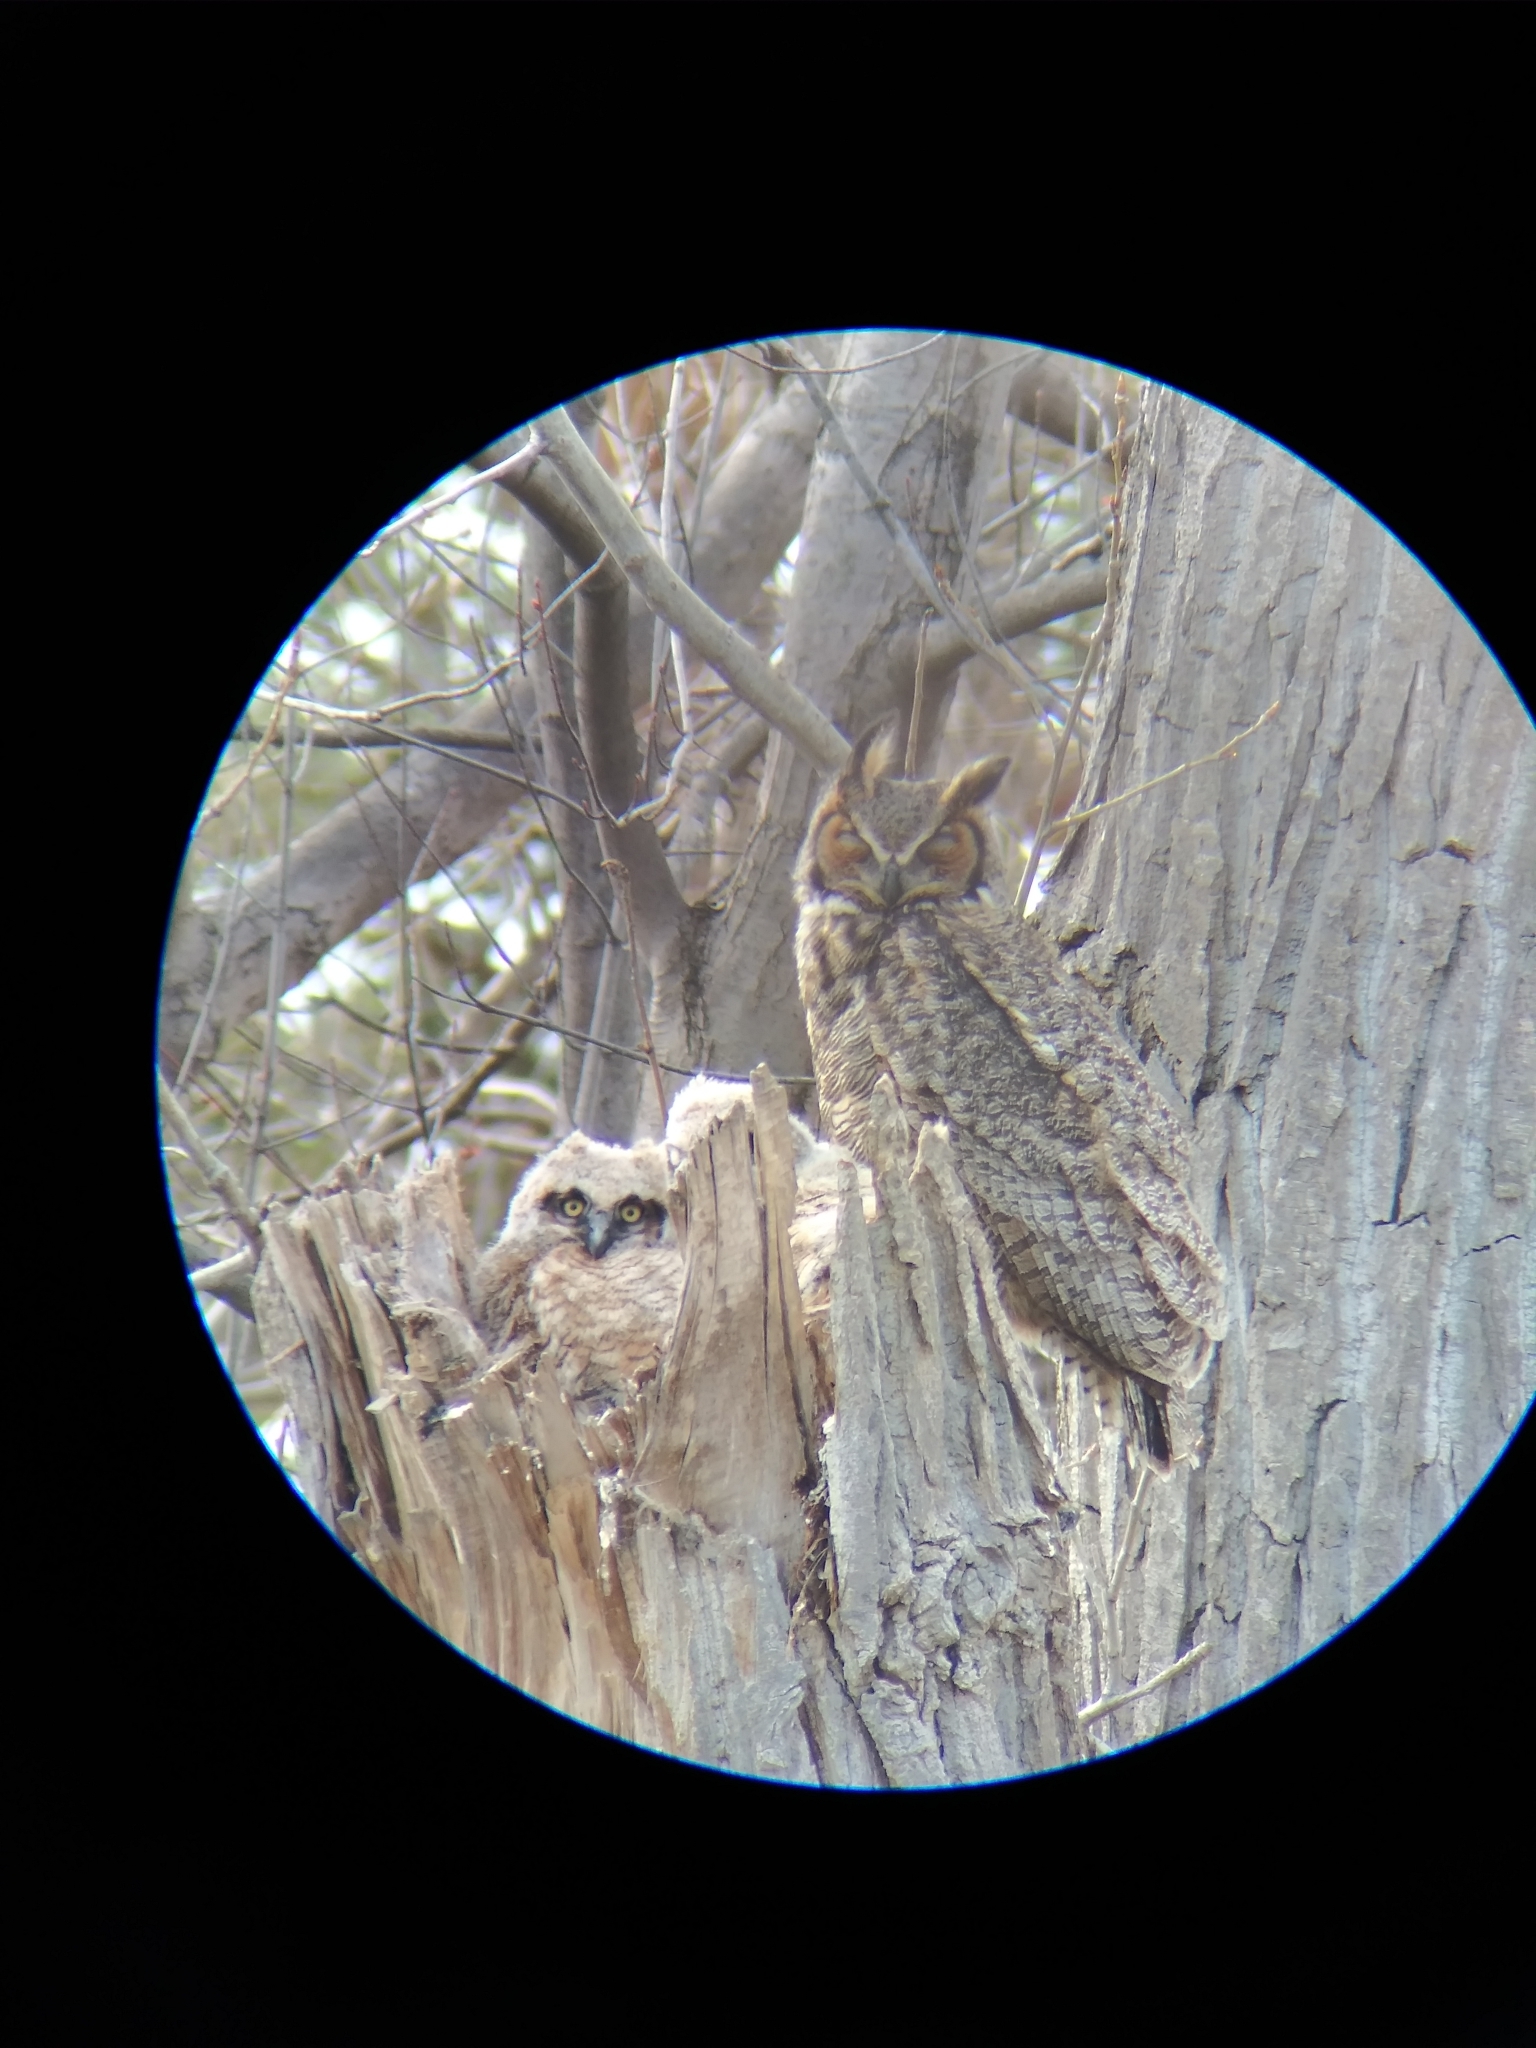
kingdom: Animalia
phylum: Chordata
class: Aves
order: Strigiformes
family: Strigidae
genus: Bubo
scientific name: Bubo virginianus
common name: Great horned owl
